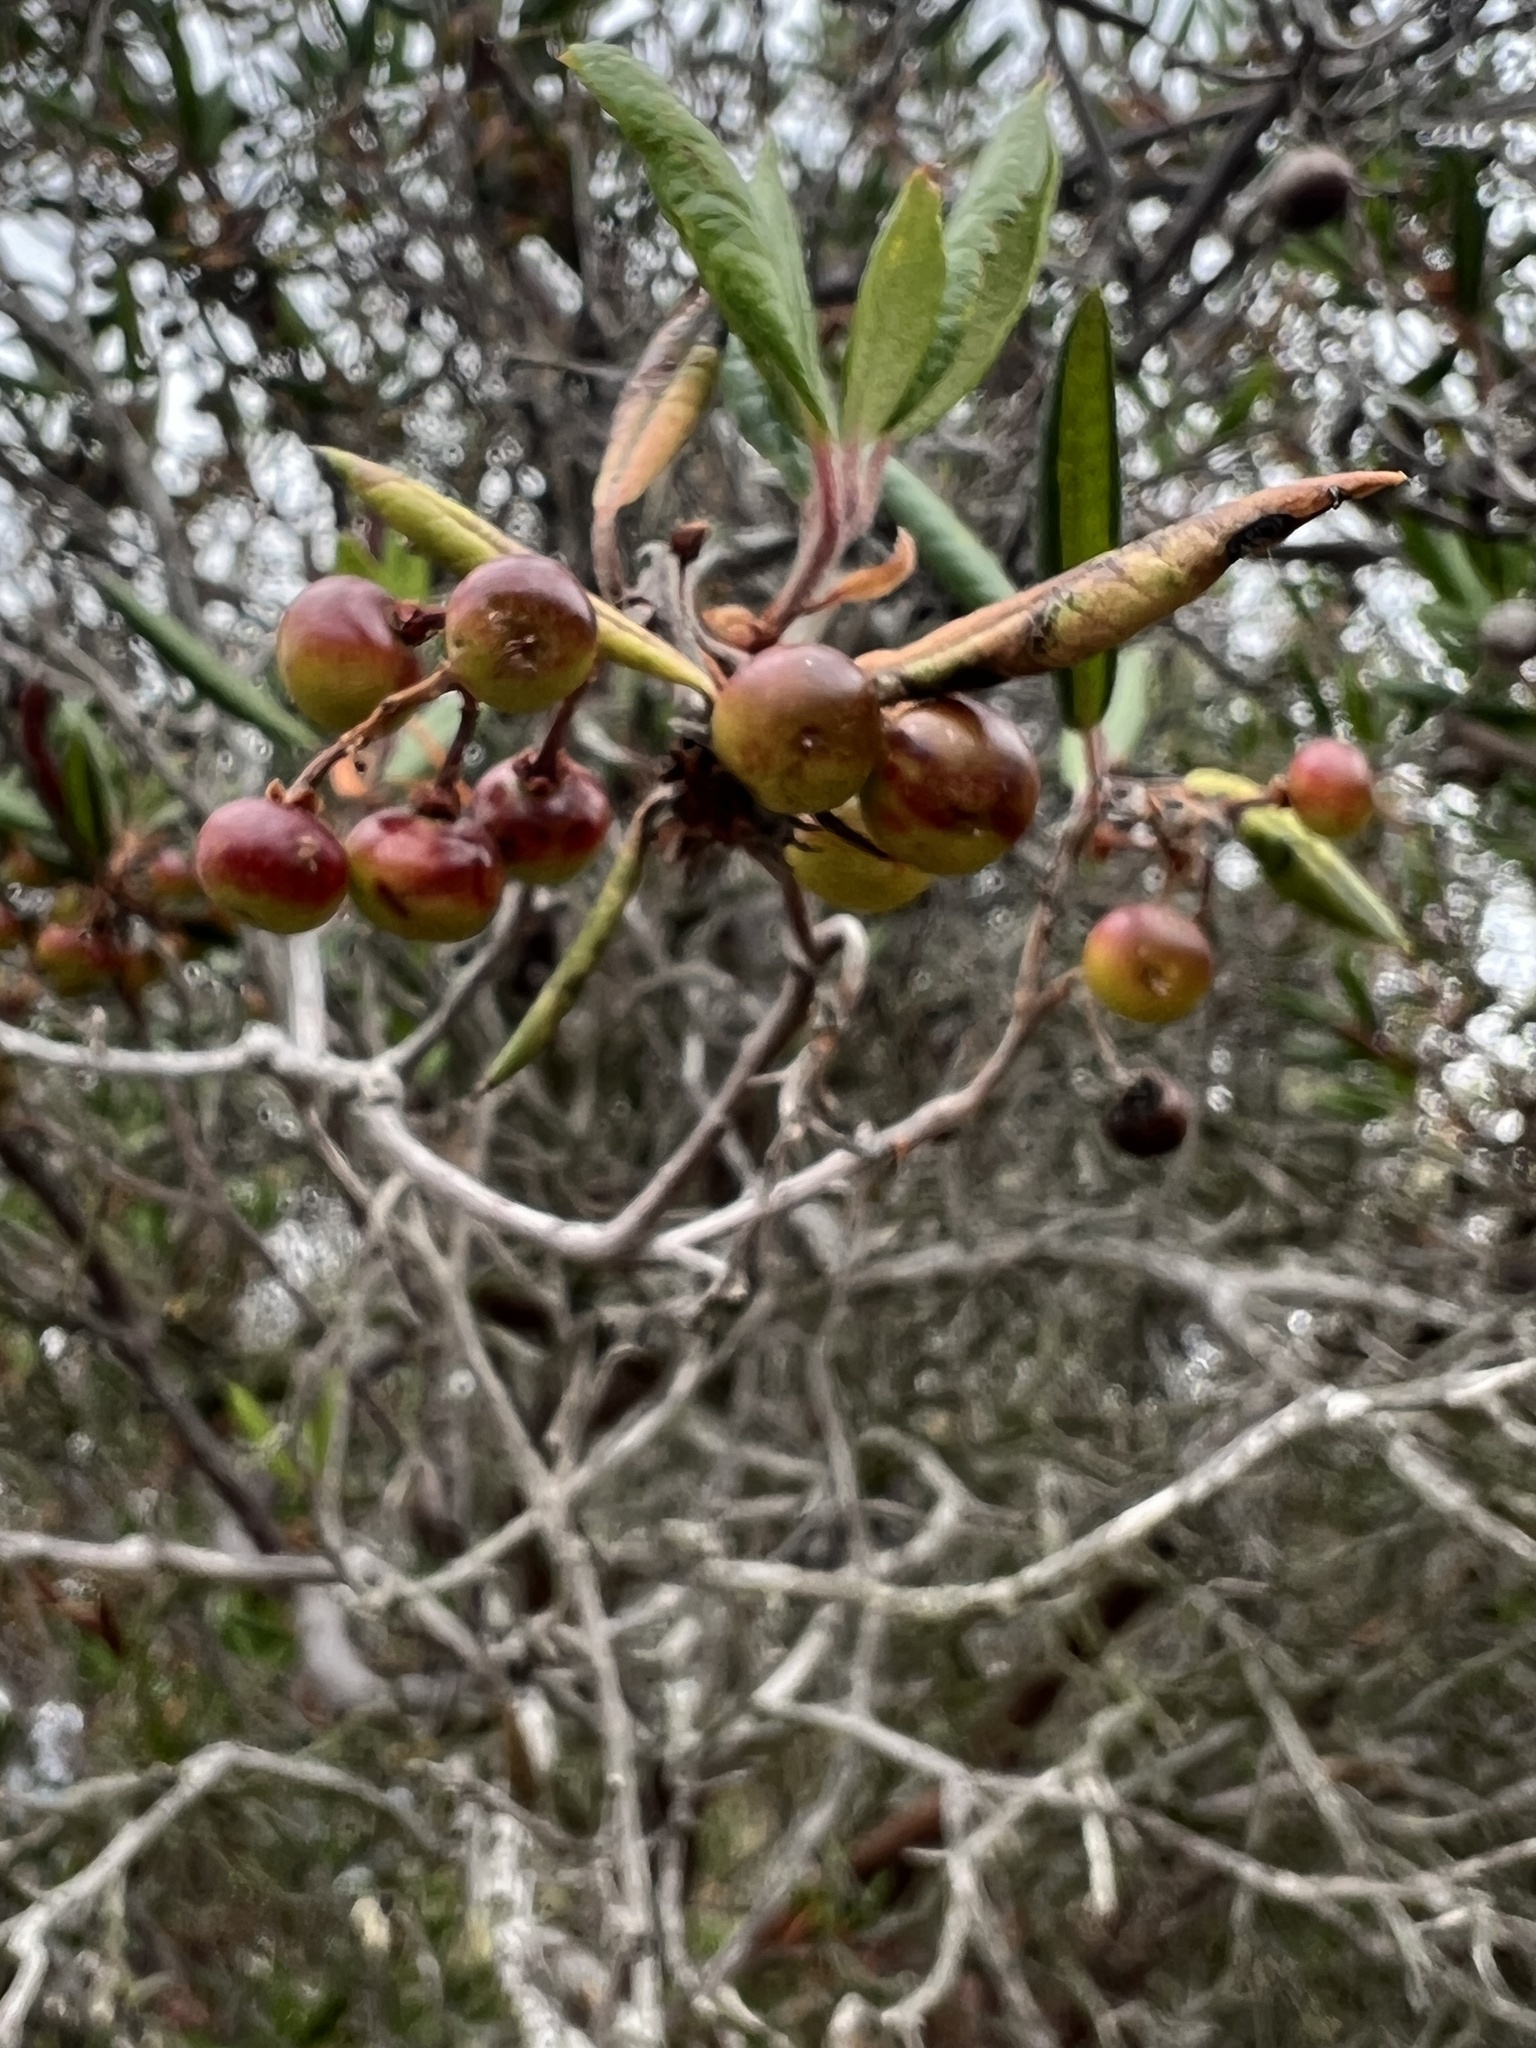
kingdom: Plantae
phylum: Tracheophyta
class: Magnoliopsida
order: Ericales
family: Ericaceae
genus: Arctostaphylos
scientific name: Arctostaphylos bicolor
